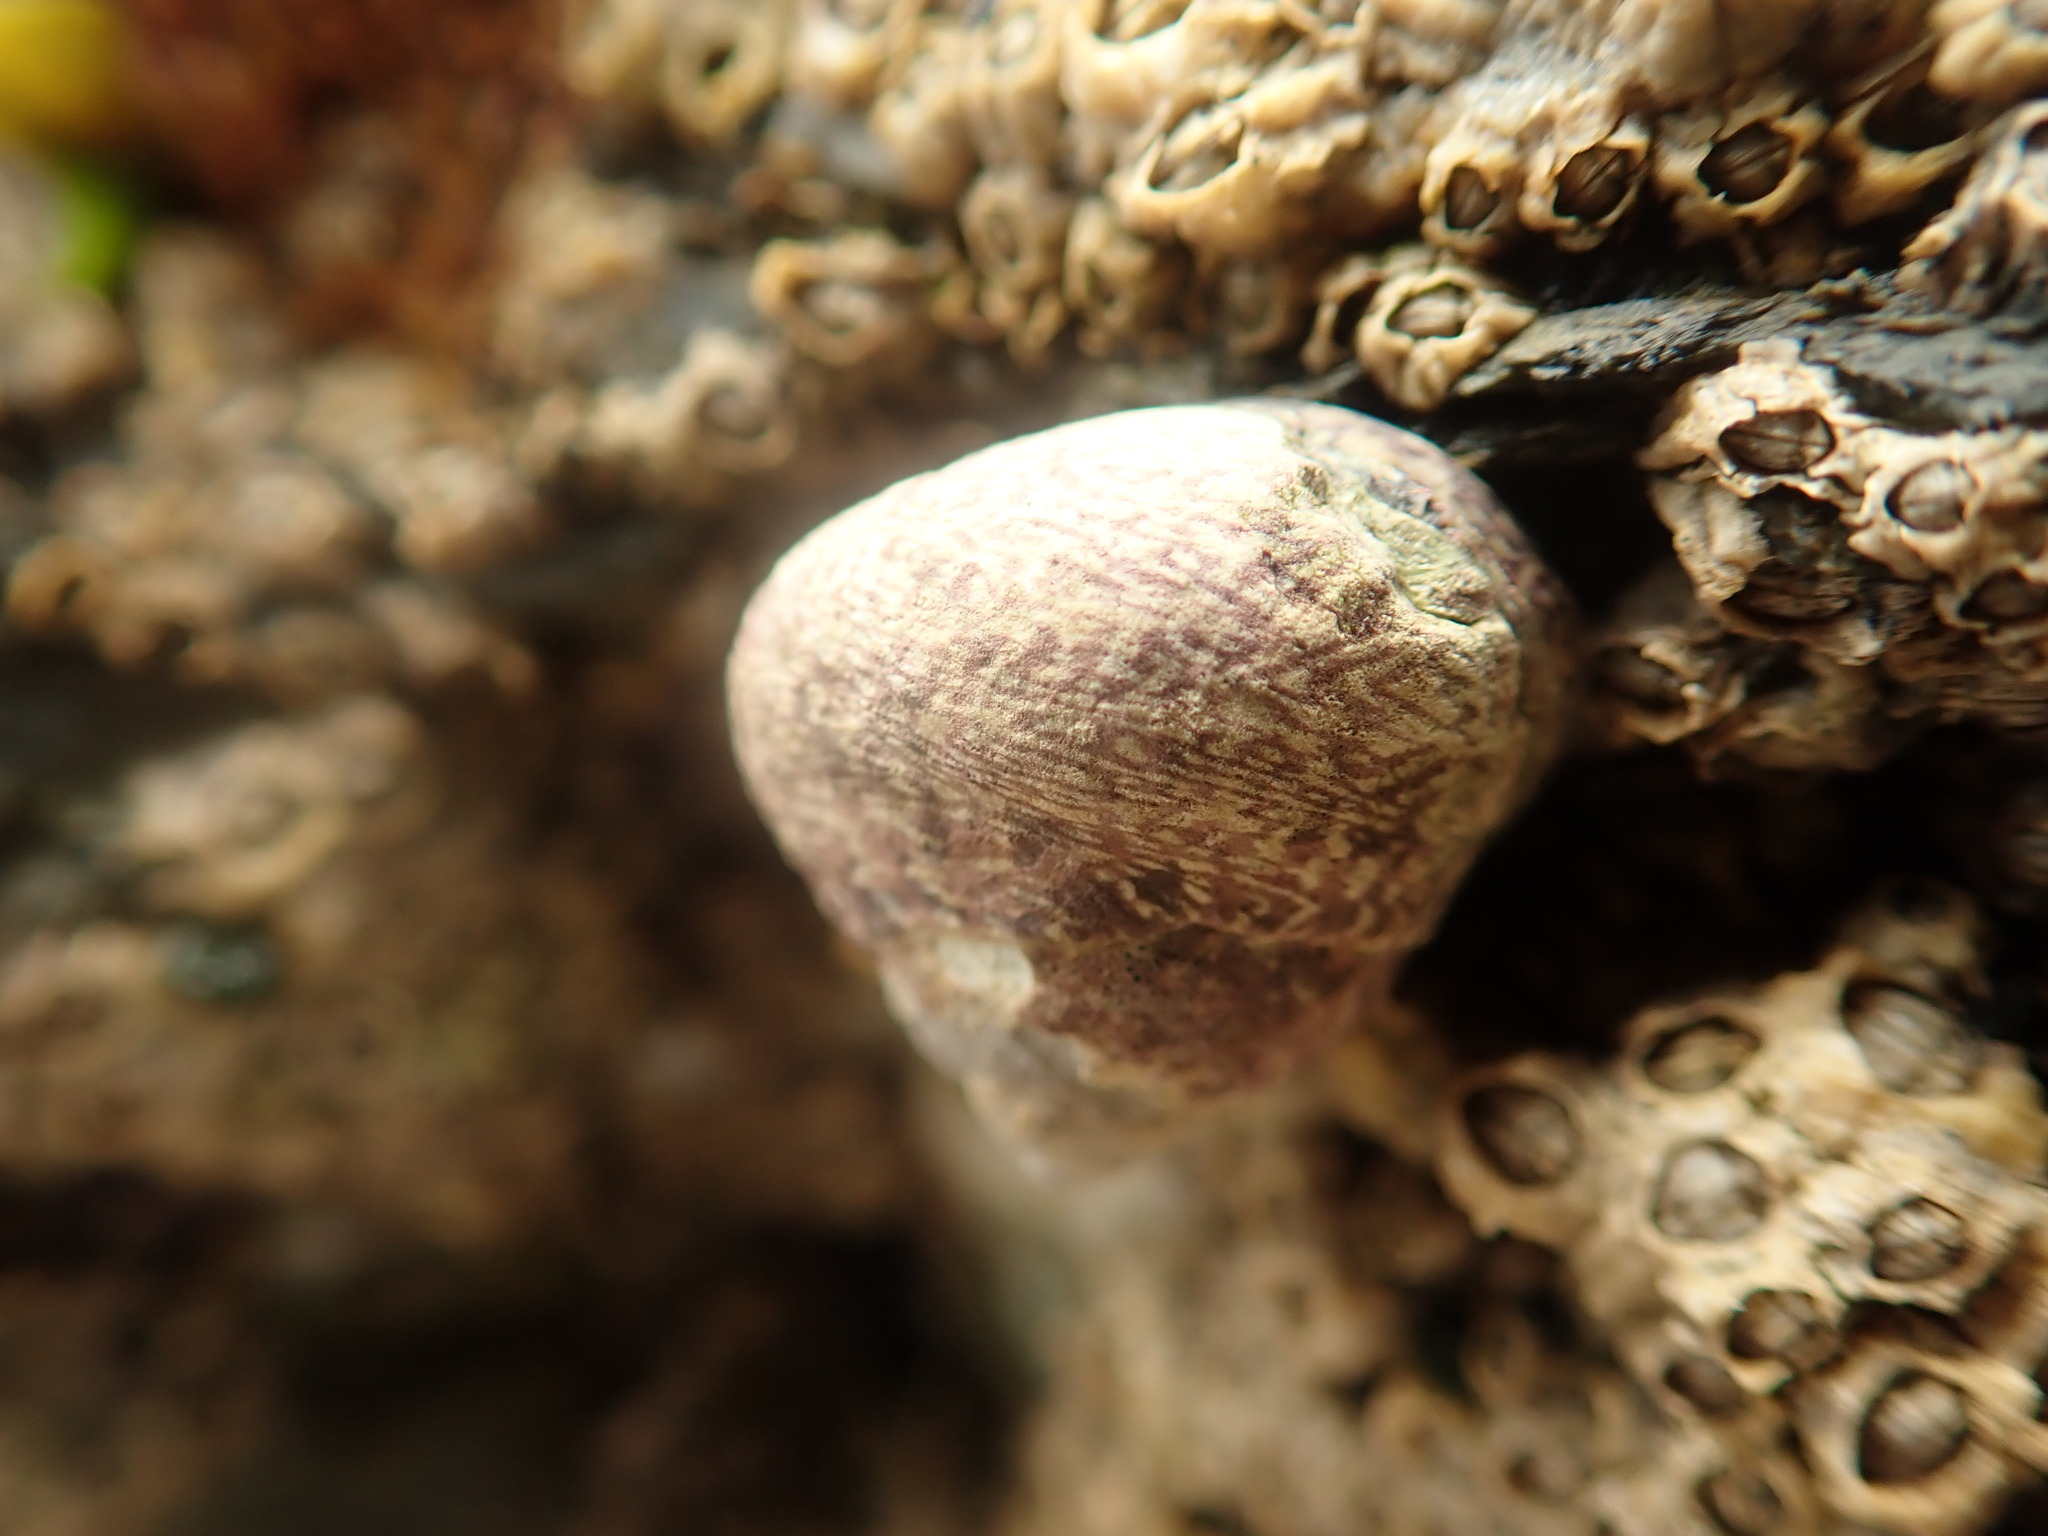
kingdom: Animalia
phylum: Mollusca
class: Gastropoda
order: Trochida
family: Trochidae
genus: Phorcus
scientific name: Phorcus lineatus
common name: Toothed top shell
